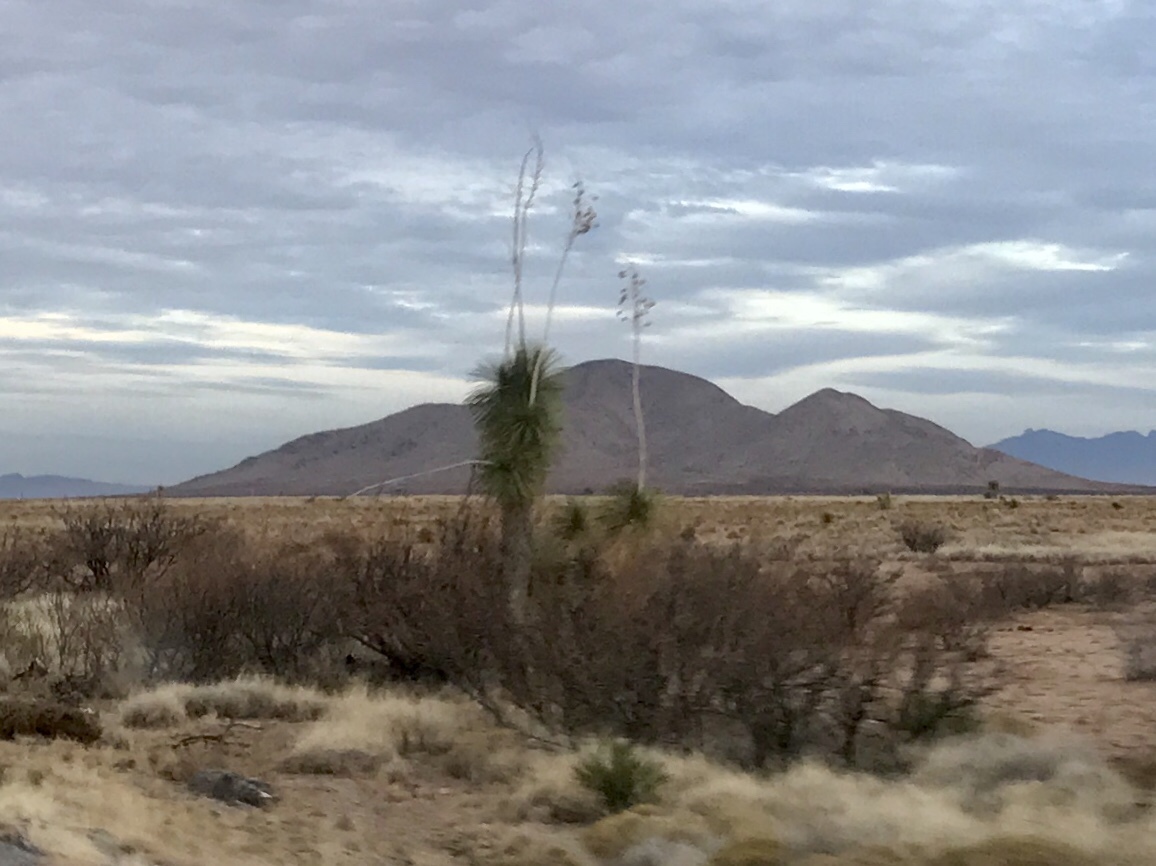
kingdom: Plantae
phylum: Tracheophyta
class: Liliopsida
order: Asparagales
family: Asparagaceae
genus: Yucca
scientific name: Yucca elata
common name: Palmella
